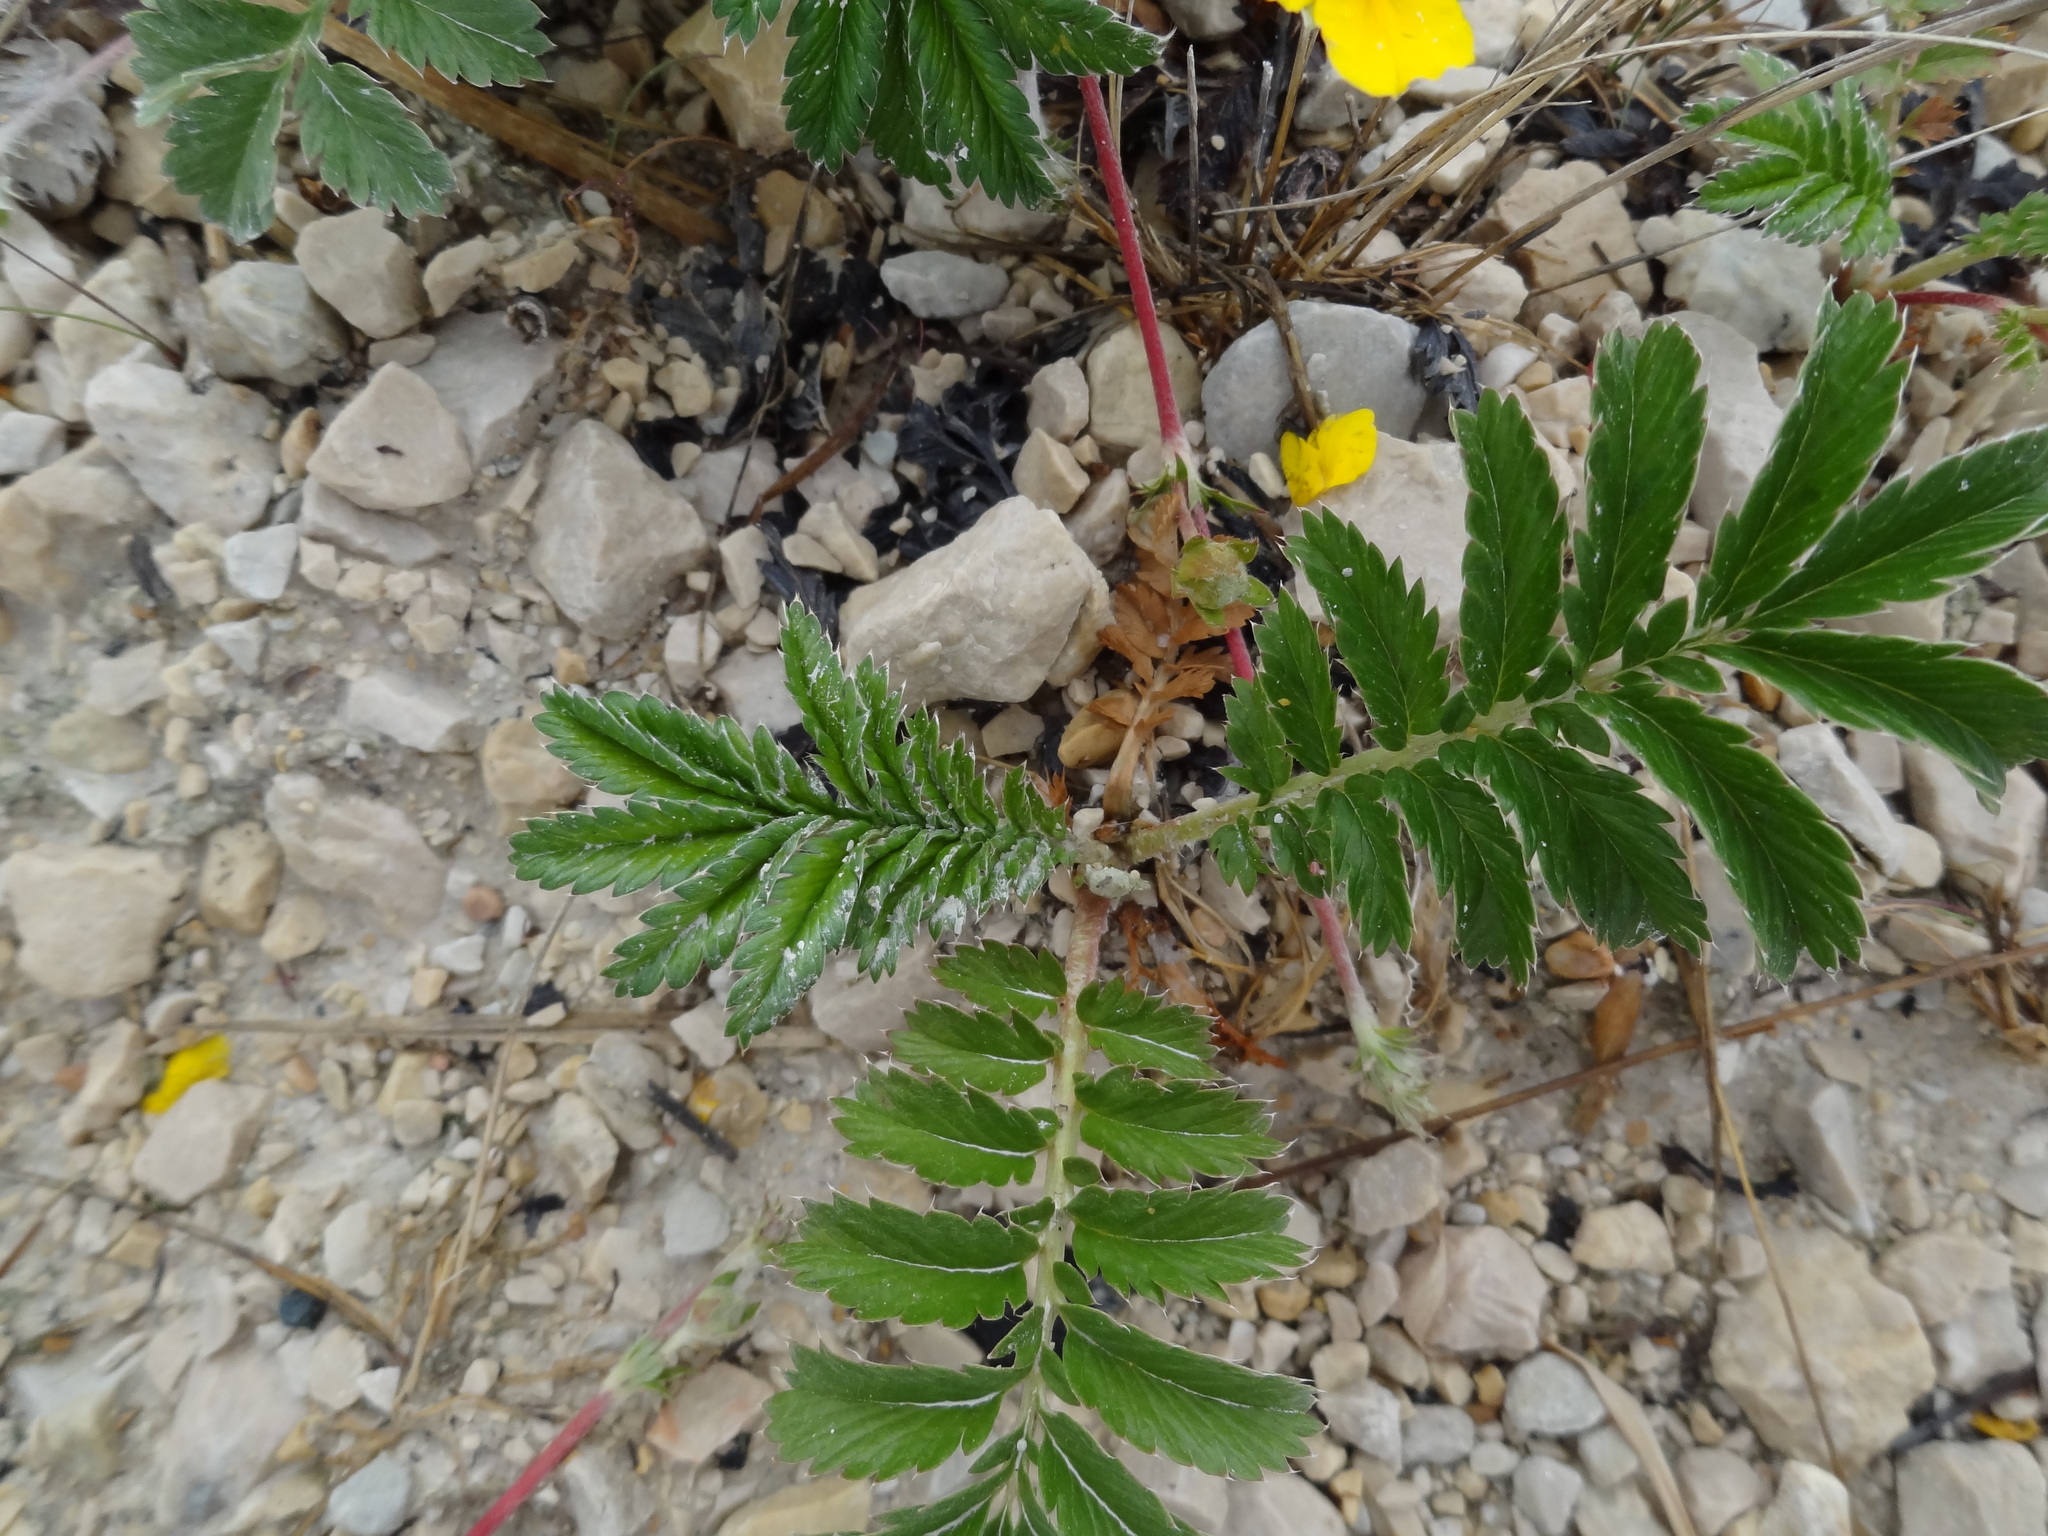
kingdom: Plantae
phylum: Tracheophyta
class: Magnoliopsida
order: Rosales
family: Rosaceae
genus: Argentina
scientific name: Argentina anserina
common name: Common silverweed
